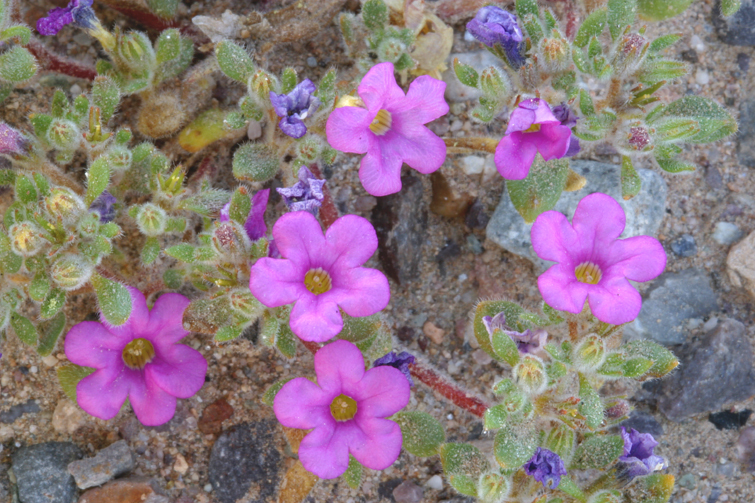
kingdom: Plantae
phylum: Tracheophyta
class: Magnoliopsida
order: Boraginales
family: Namaceae
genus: Nama
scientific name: Nama demissa
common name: Leafy nama
